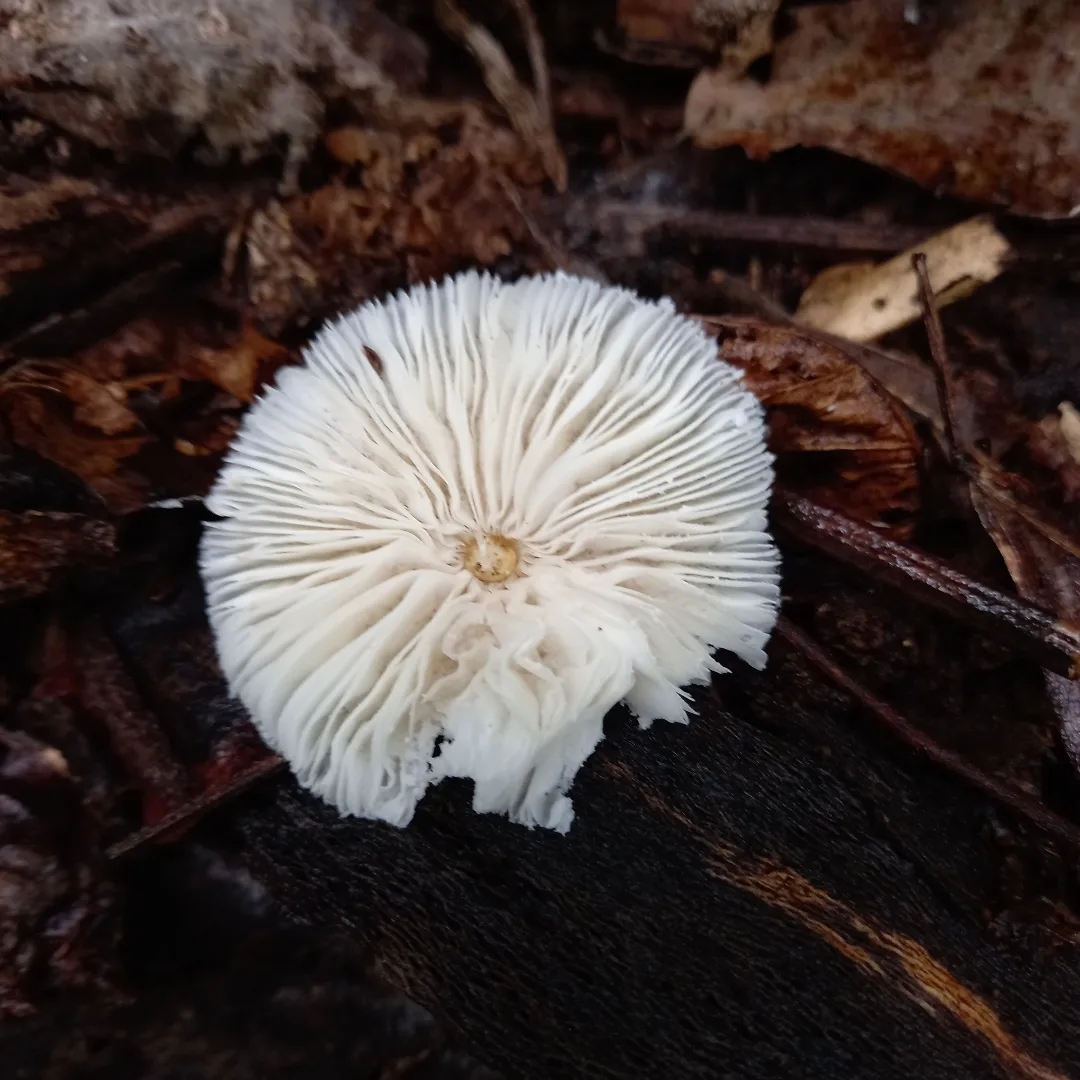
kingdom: Fungi
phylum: Basidiomycota
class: Agaricomycetes
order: Agaricales
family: Agaricaceae
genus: Leucocoprinus
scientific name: Leucocoprinus cretaceus
